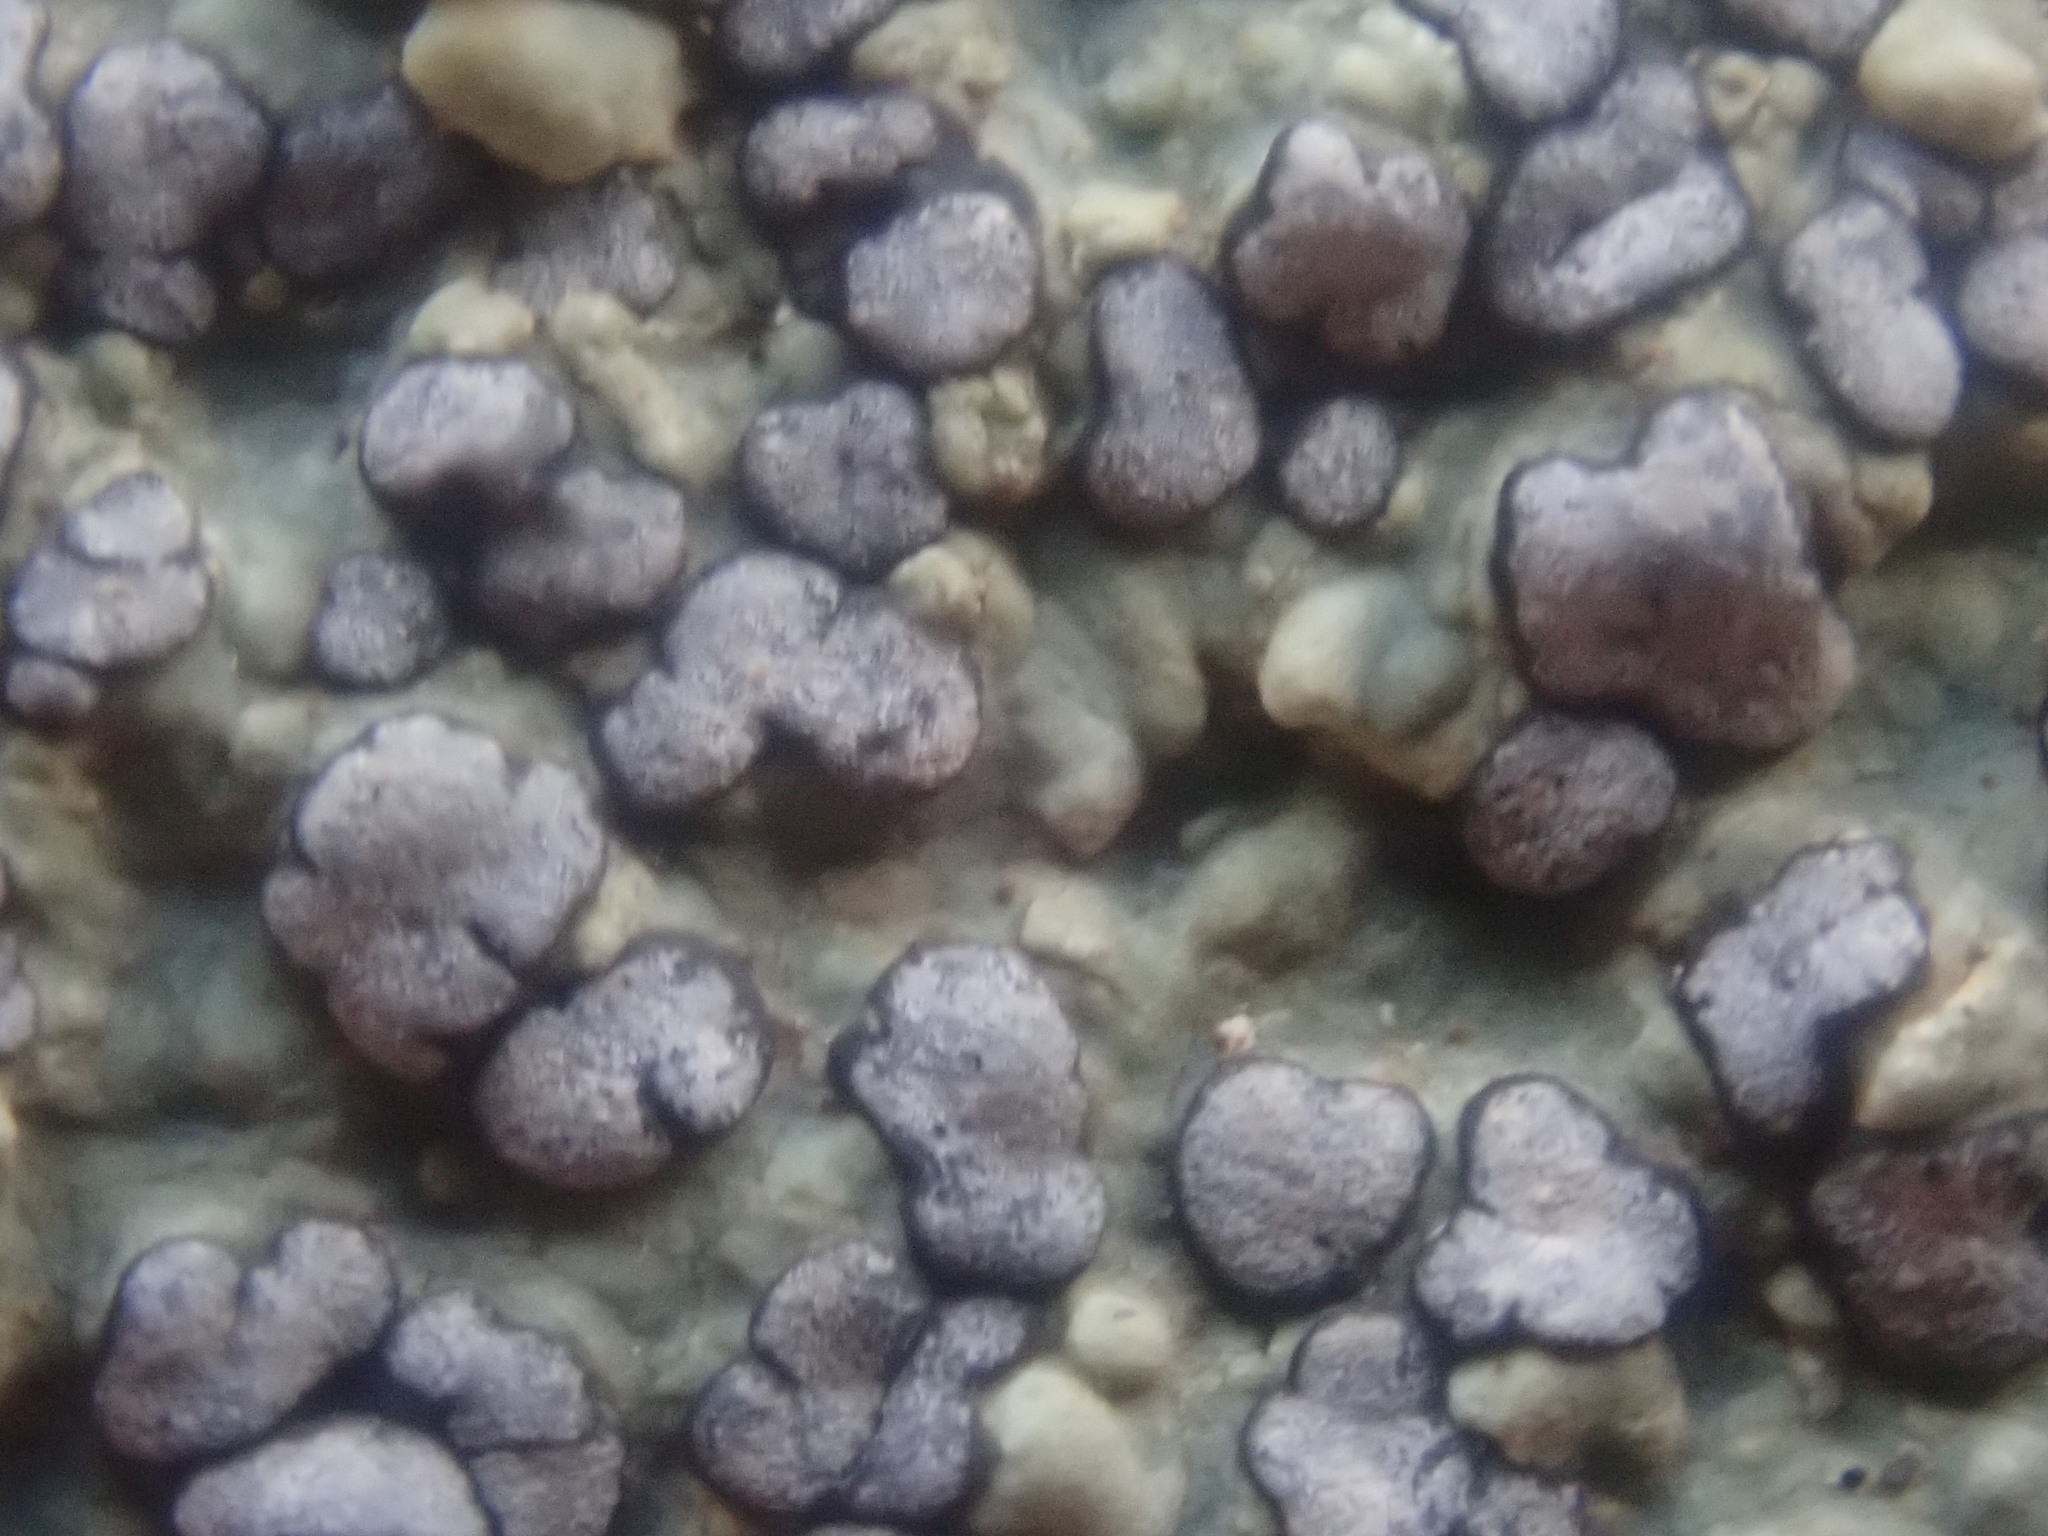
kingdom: Fungi
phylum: Ascomycota
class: Lecanoromycetes
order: Lecideales
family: Lecideaceae
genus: Porpidia
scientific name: Porpidia albocaerulescens
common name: Smokey-eyed boulder lichen
